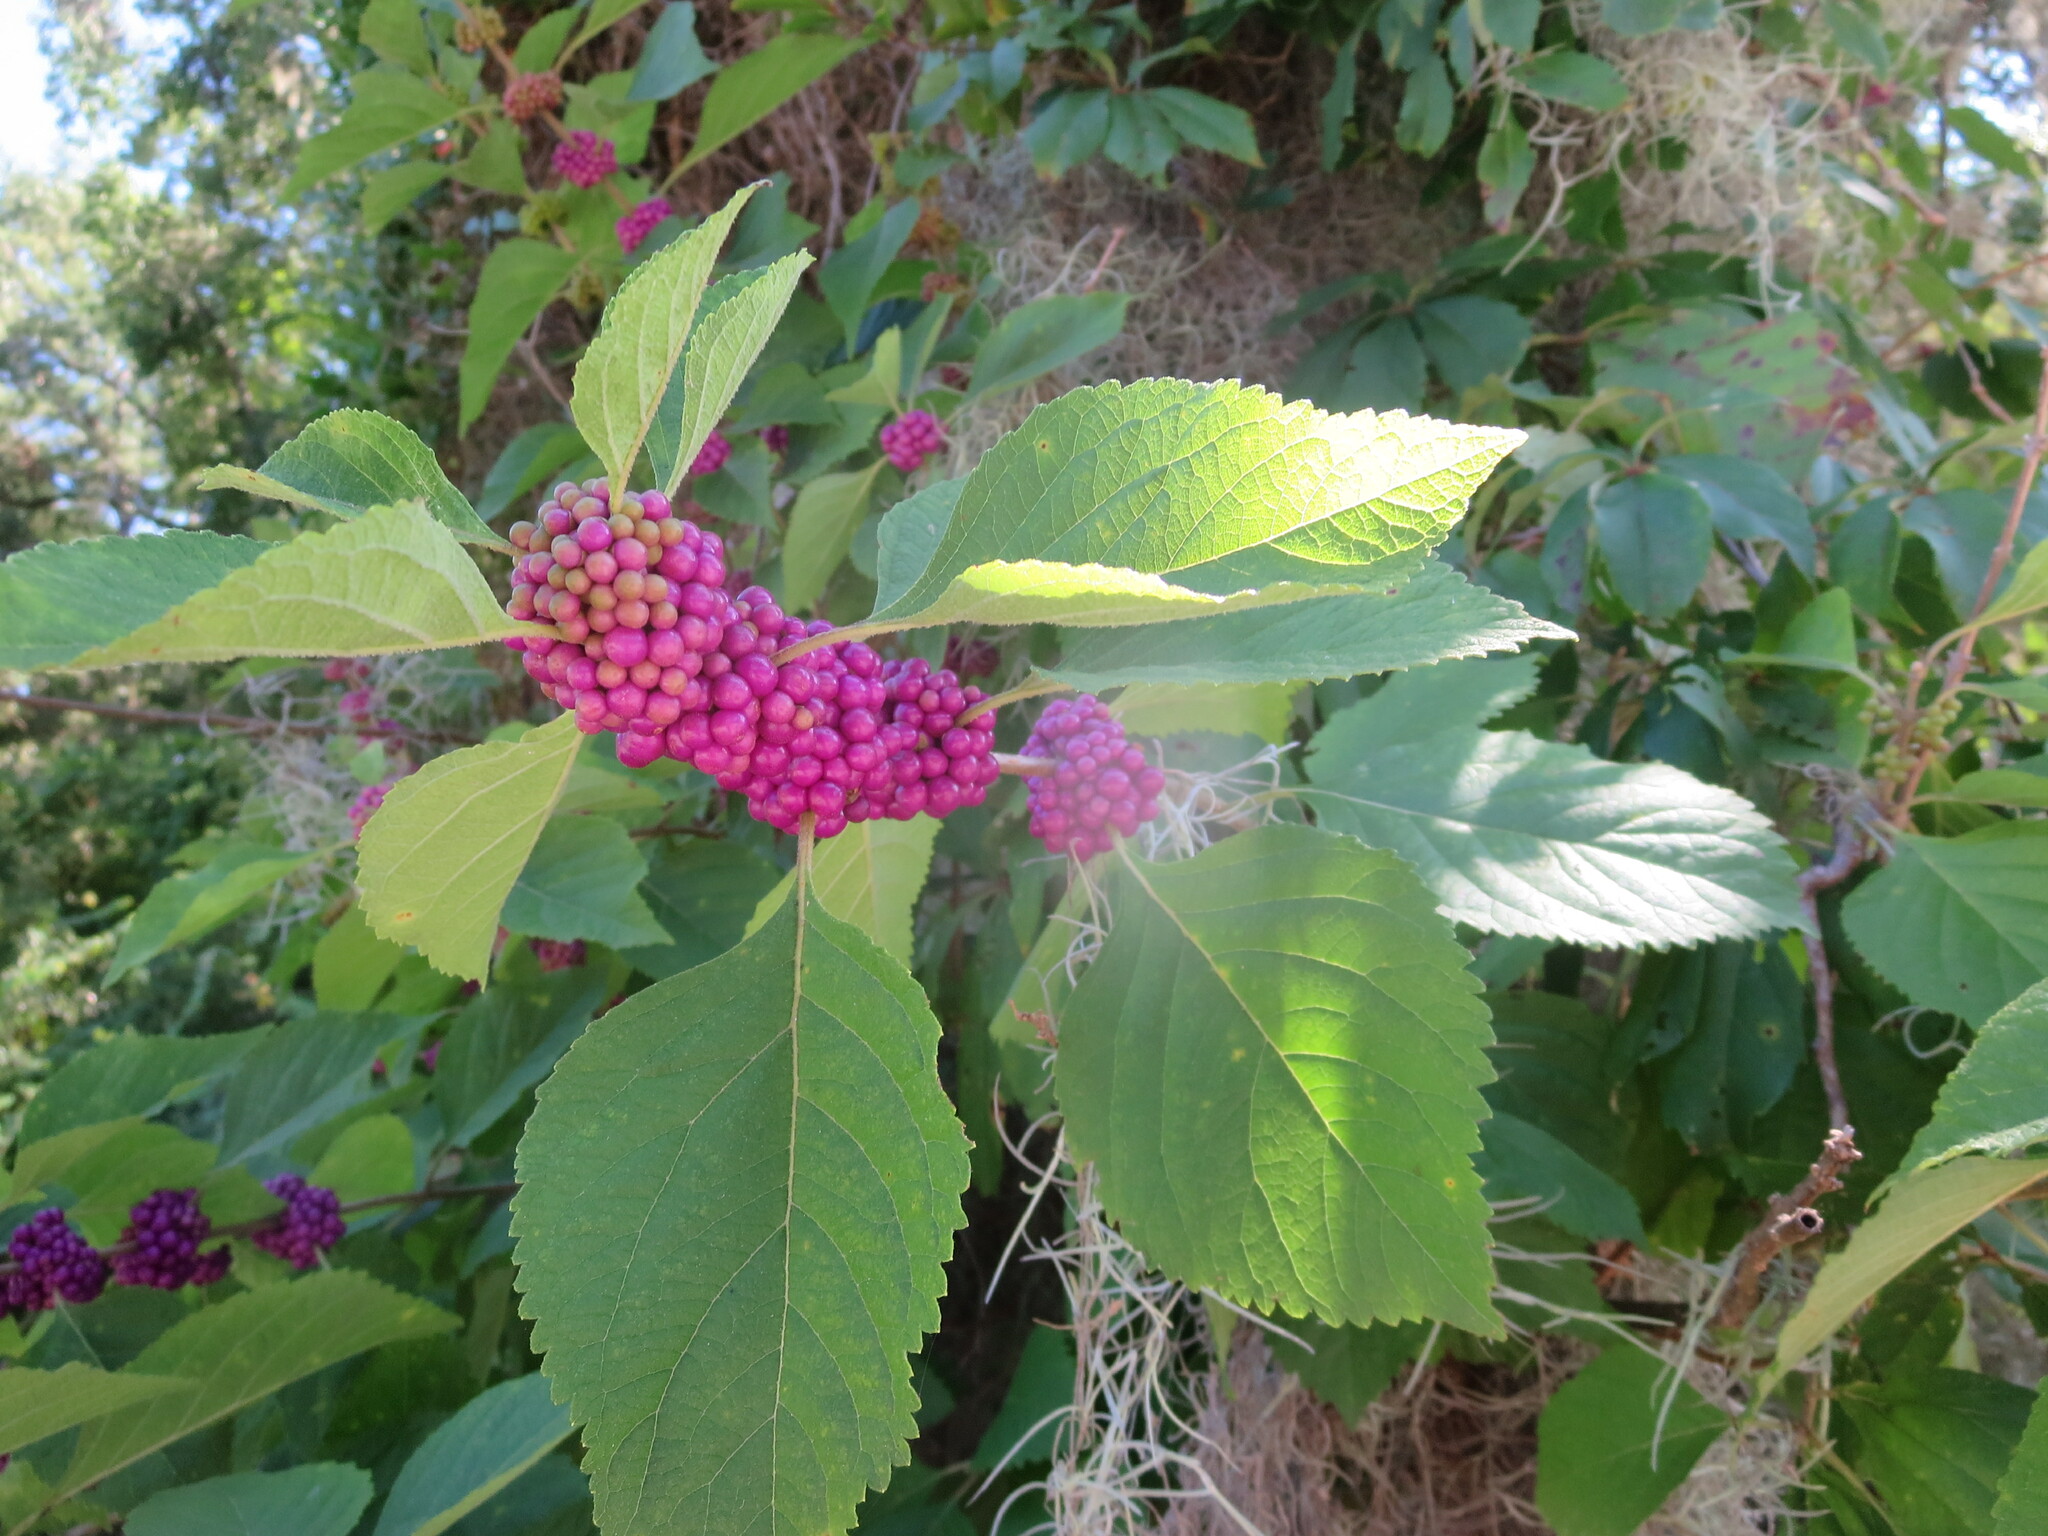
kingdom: Plantae
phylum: Tracheophyta
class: Magnoliopsida
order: Lamiales
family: Lamiaceae
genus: Callicarpa
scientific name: Callicarpa americana
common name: American beautyberry
